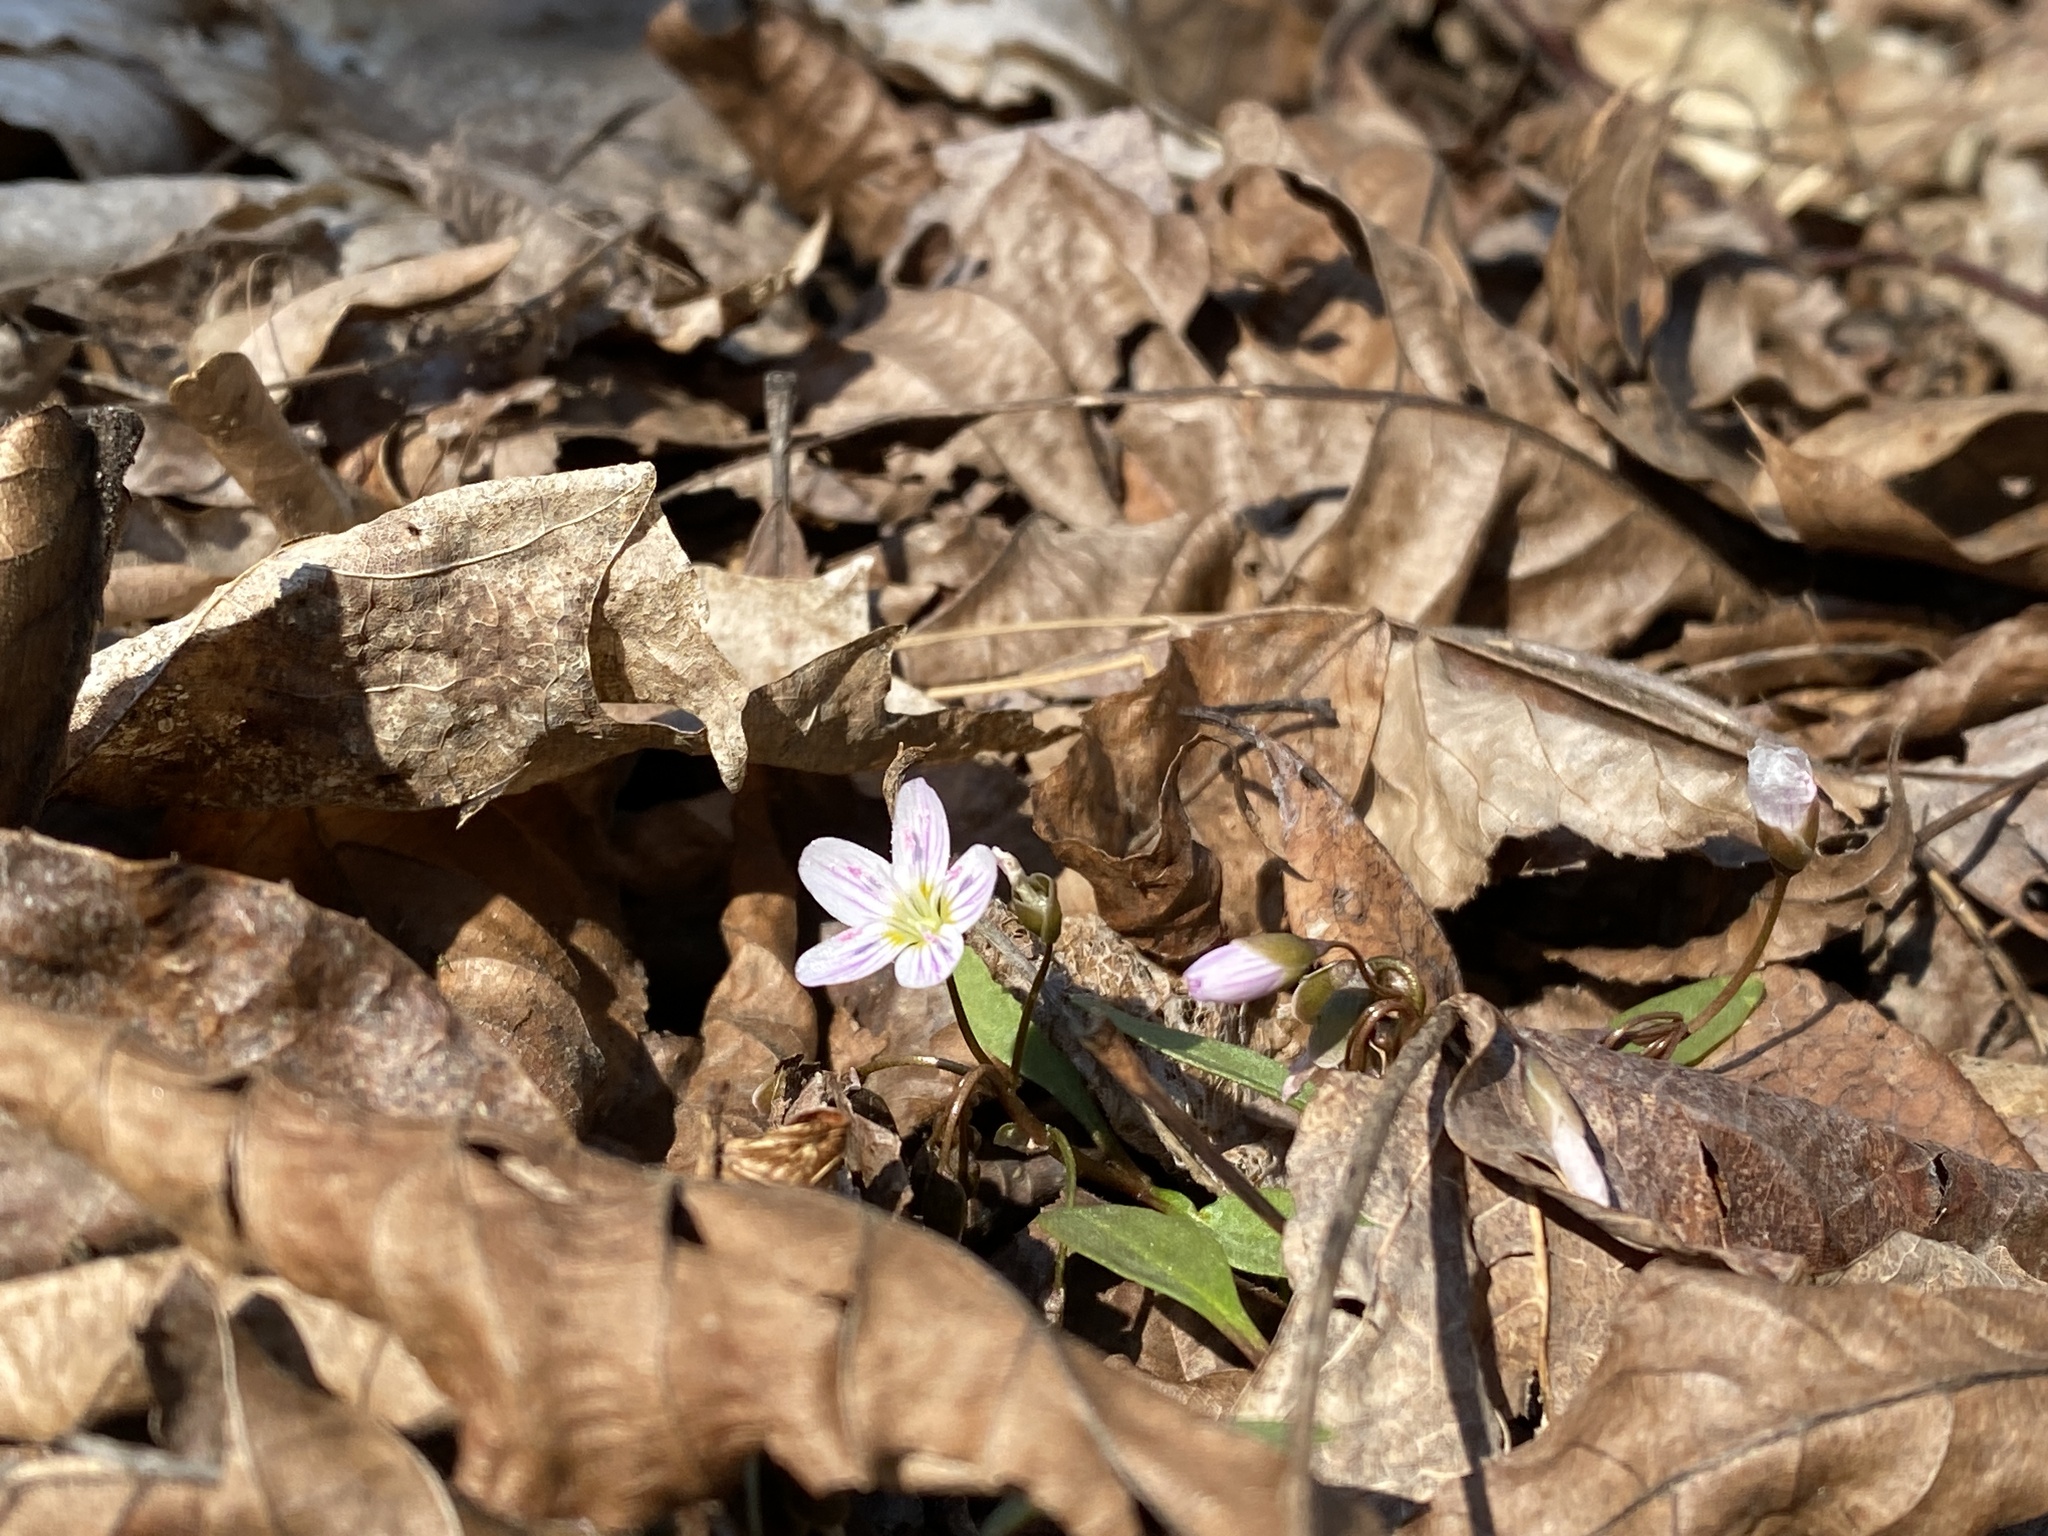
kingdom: Plantae
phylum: Tracheophyta
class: Magnoliopsida
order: Caryophyllales
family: Montiaceae
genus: Claytonia
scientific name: Claytonia caroliniana
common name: Carolina spring beauty
